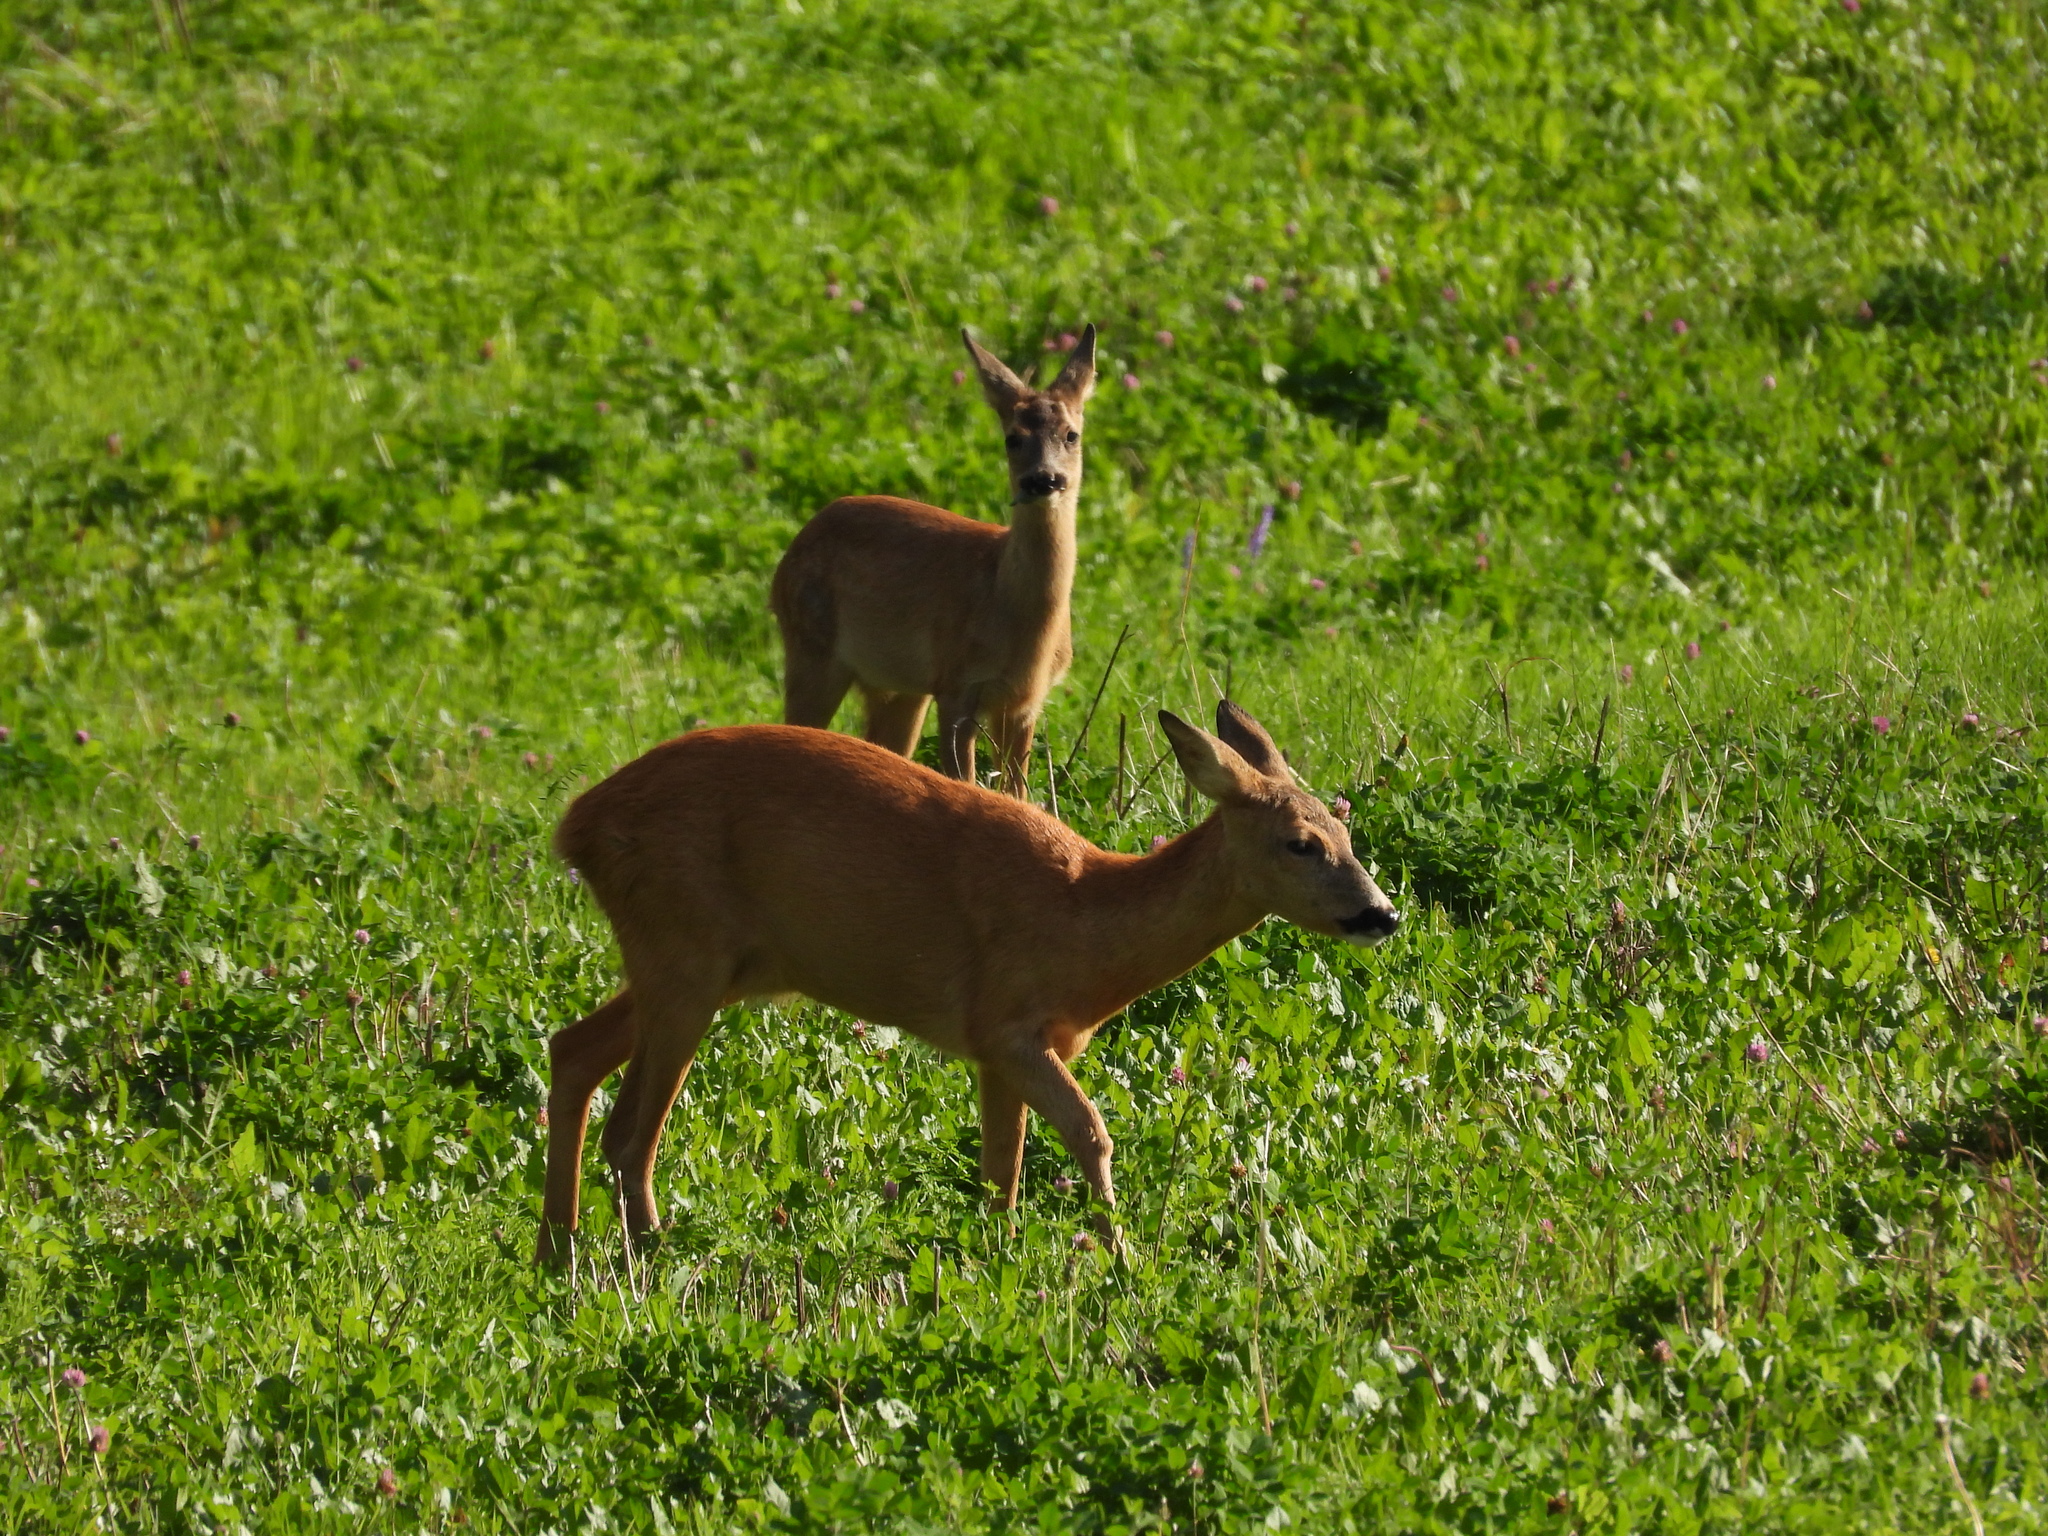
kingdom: Animalia
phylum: Chordata
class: Mammalia
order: Artiodactyla
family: Cervidae
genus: Capreolus
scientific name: Capreolus capreolus
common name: Western roe deer
